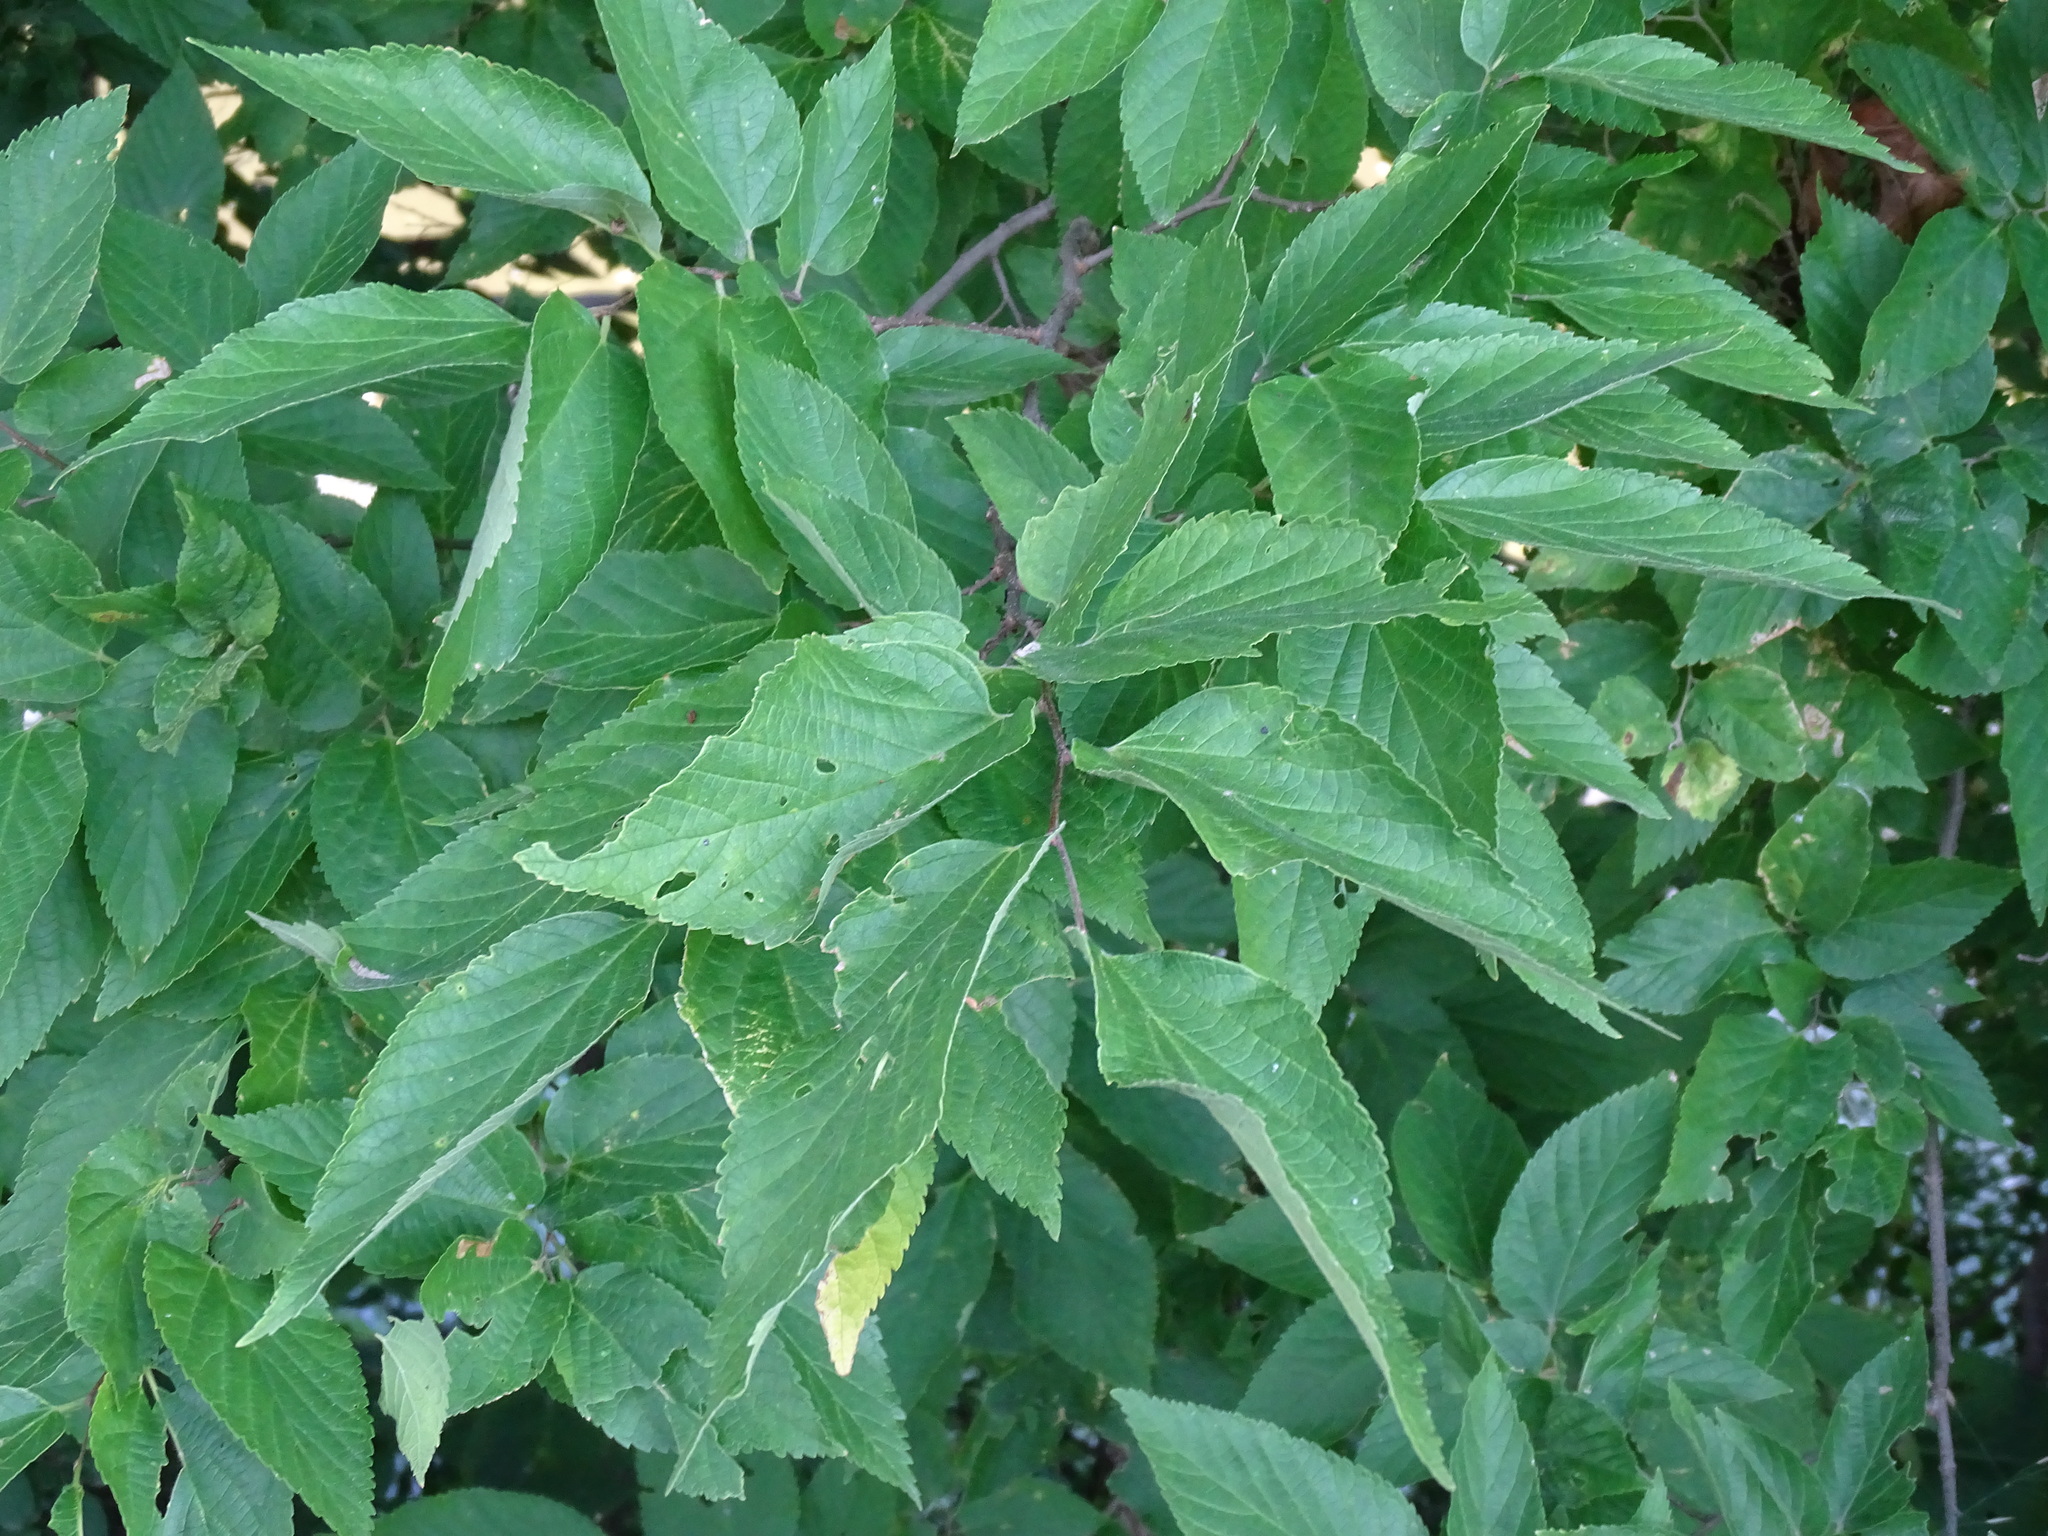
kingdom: Plantae
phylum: Tracheophyta
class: Magnoliopsida
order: Rosales
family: Cannabaceae
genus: Celtis
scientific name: Celtis occidentalis
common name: Common hackberry
